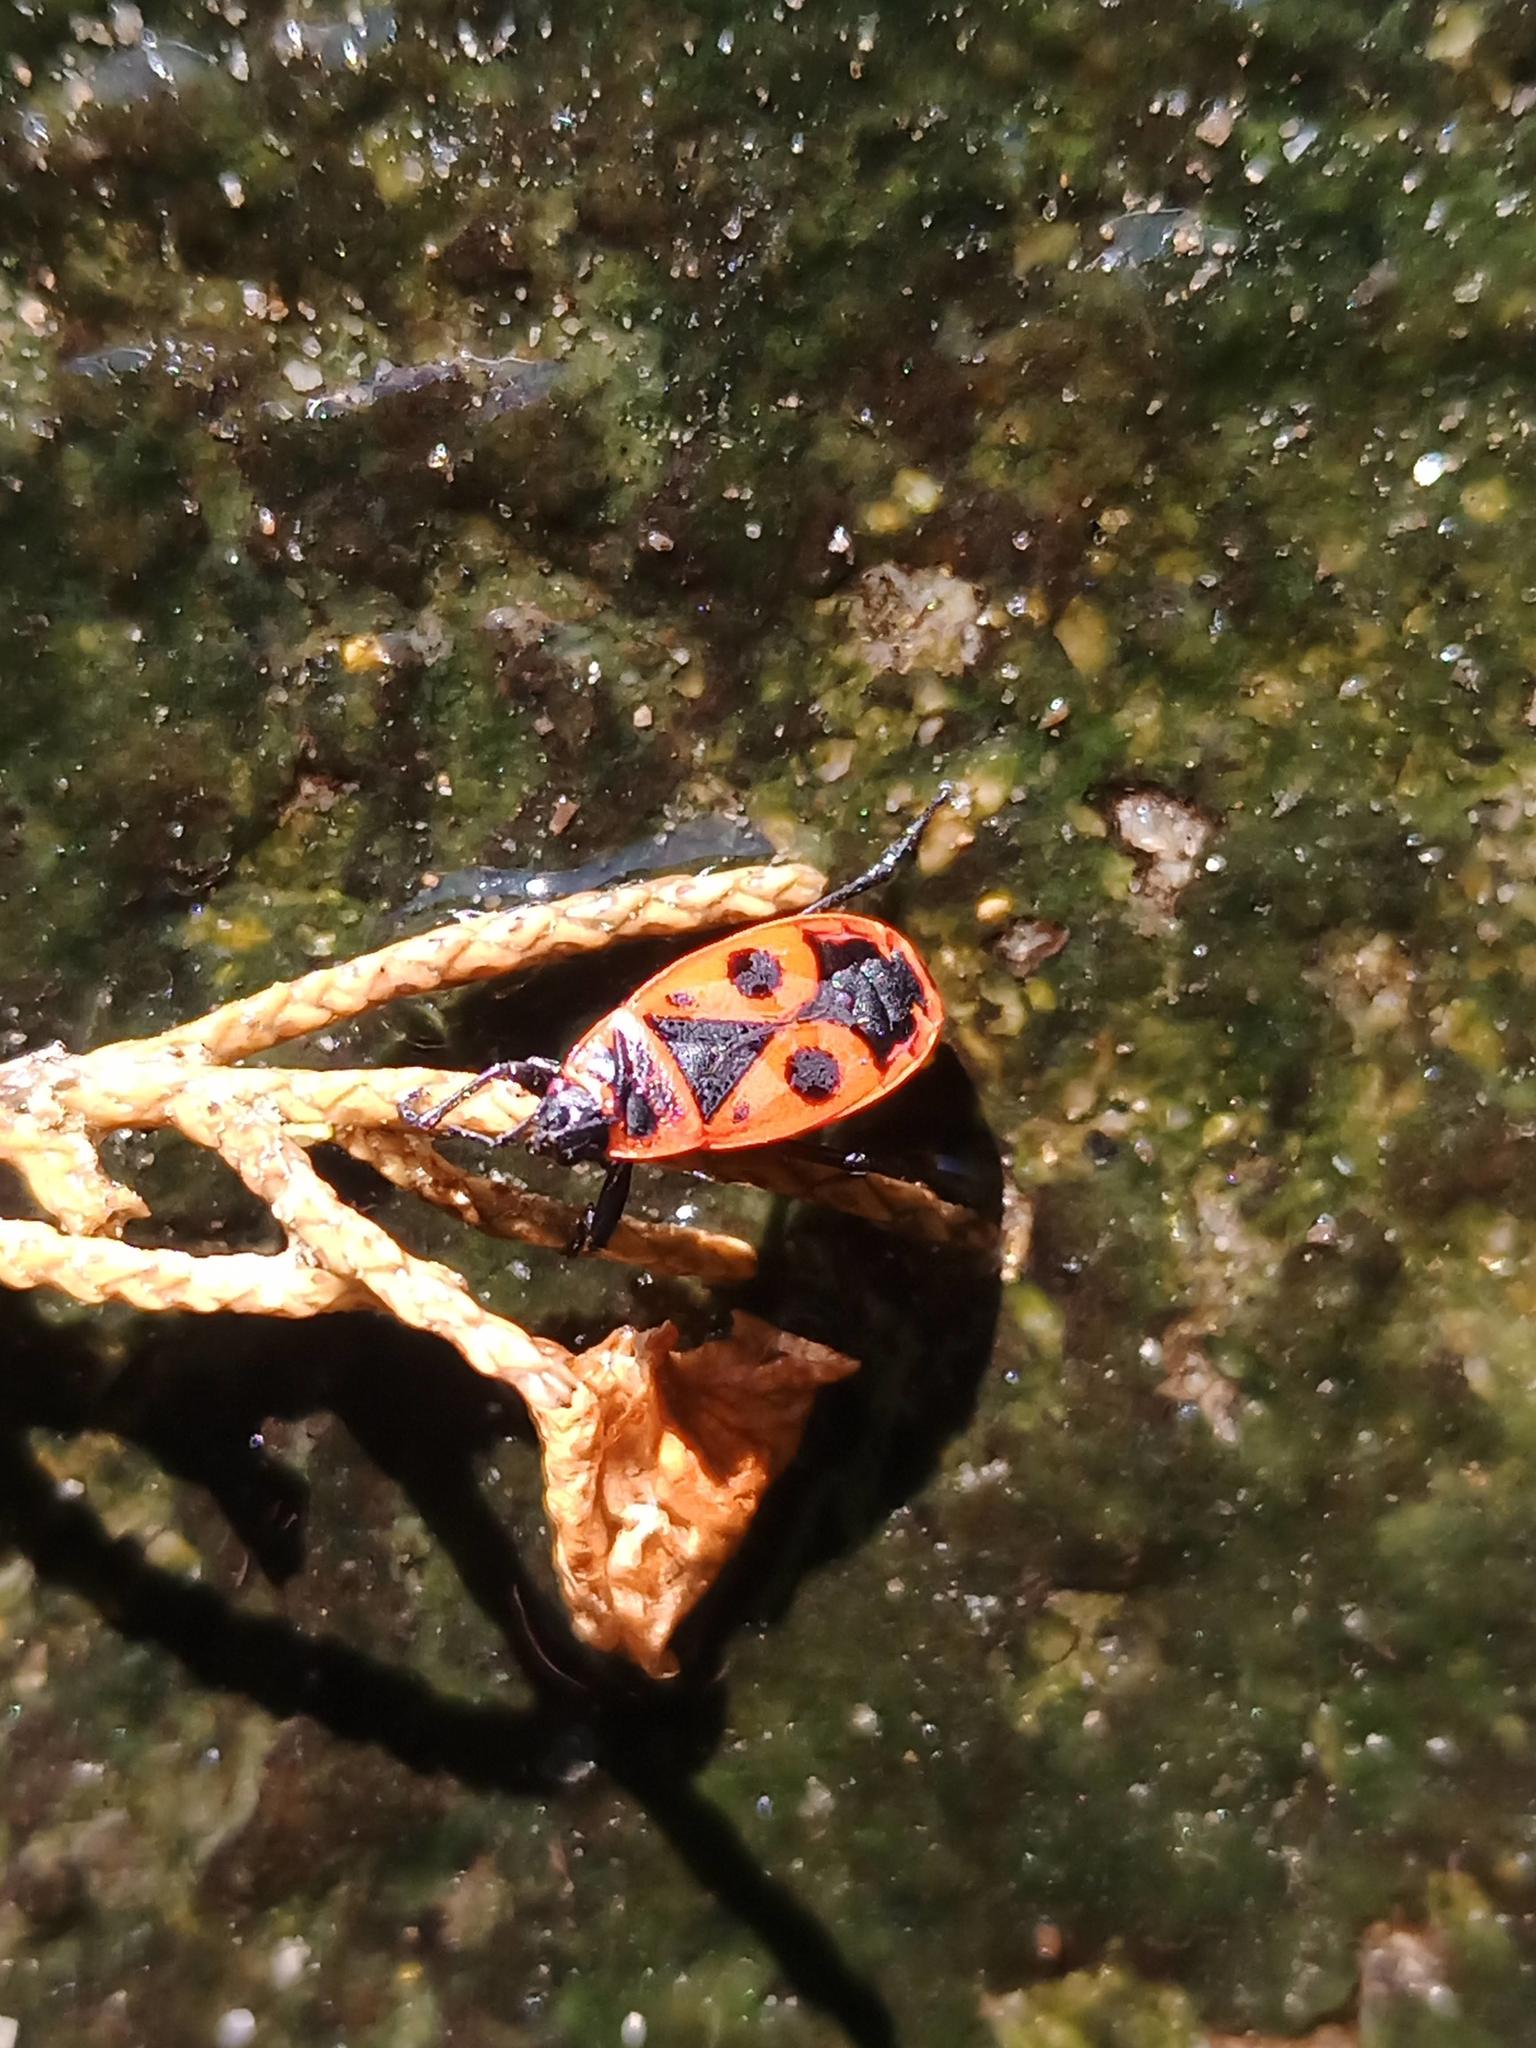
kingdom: Animalia
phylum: Arthropoda
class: Insecta
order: Hemiptera
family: Pyrrhocoridae
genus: Pyrrhocoris
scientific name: Pyrrhocoris apterus
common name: Firebug
